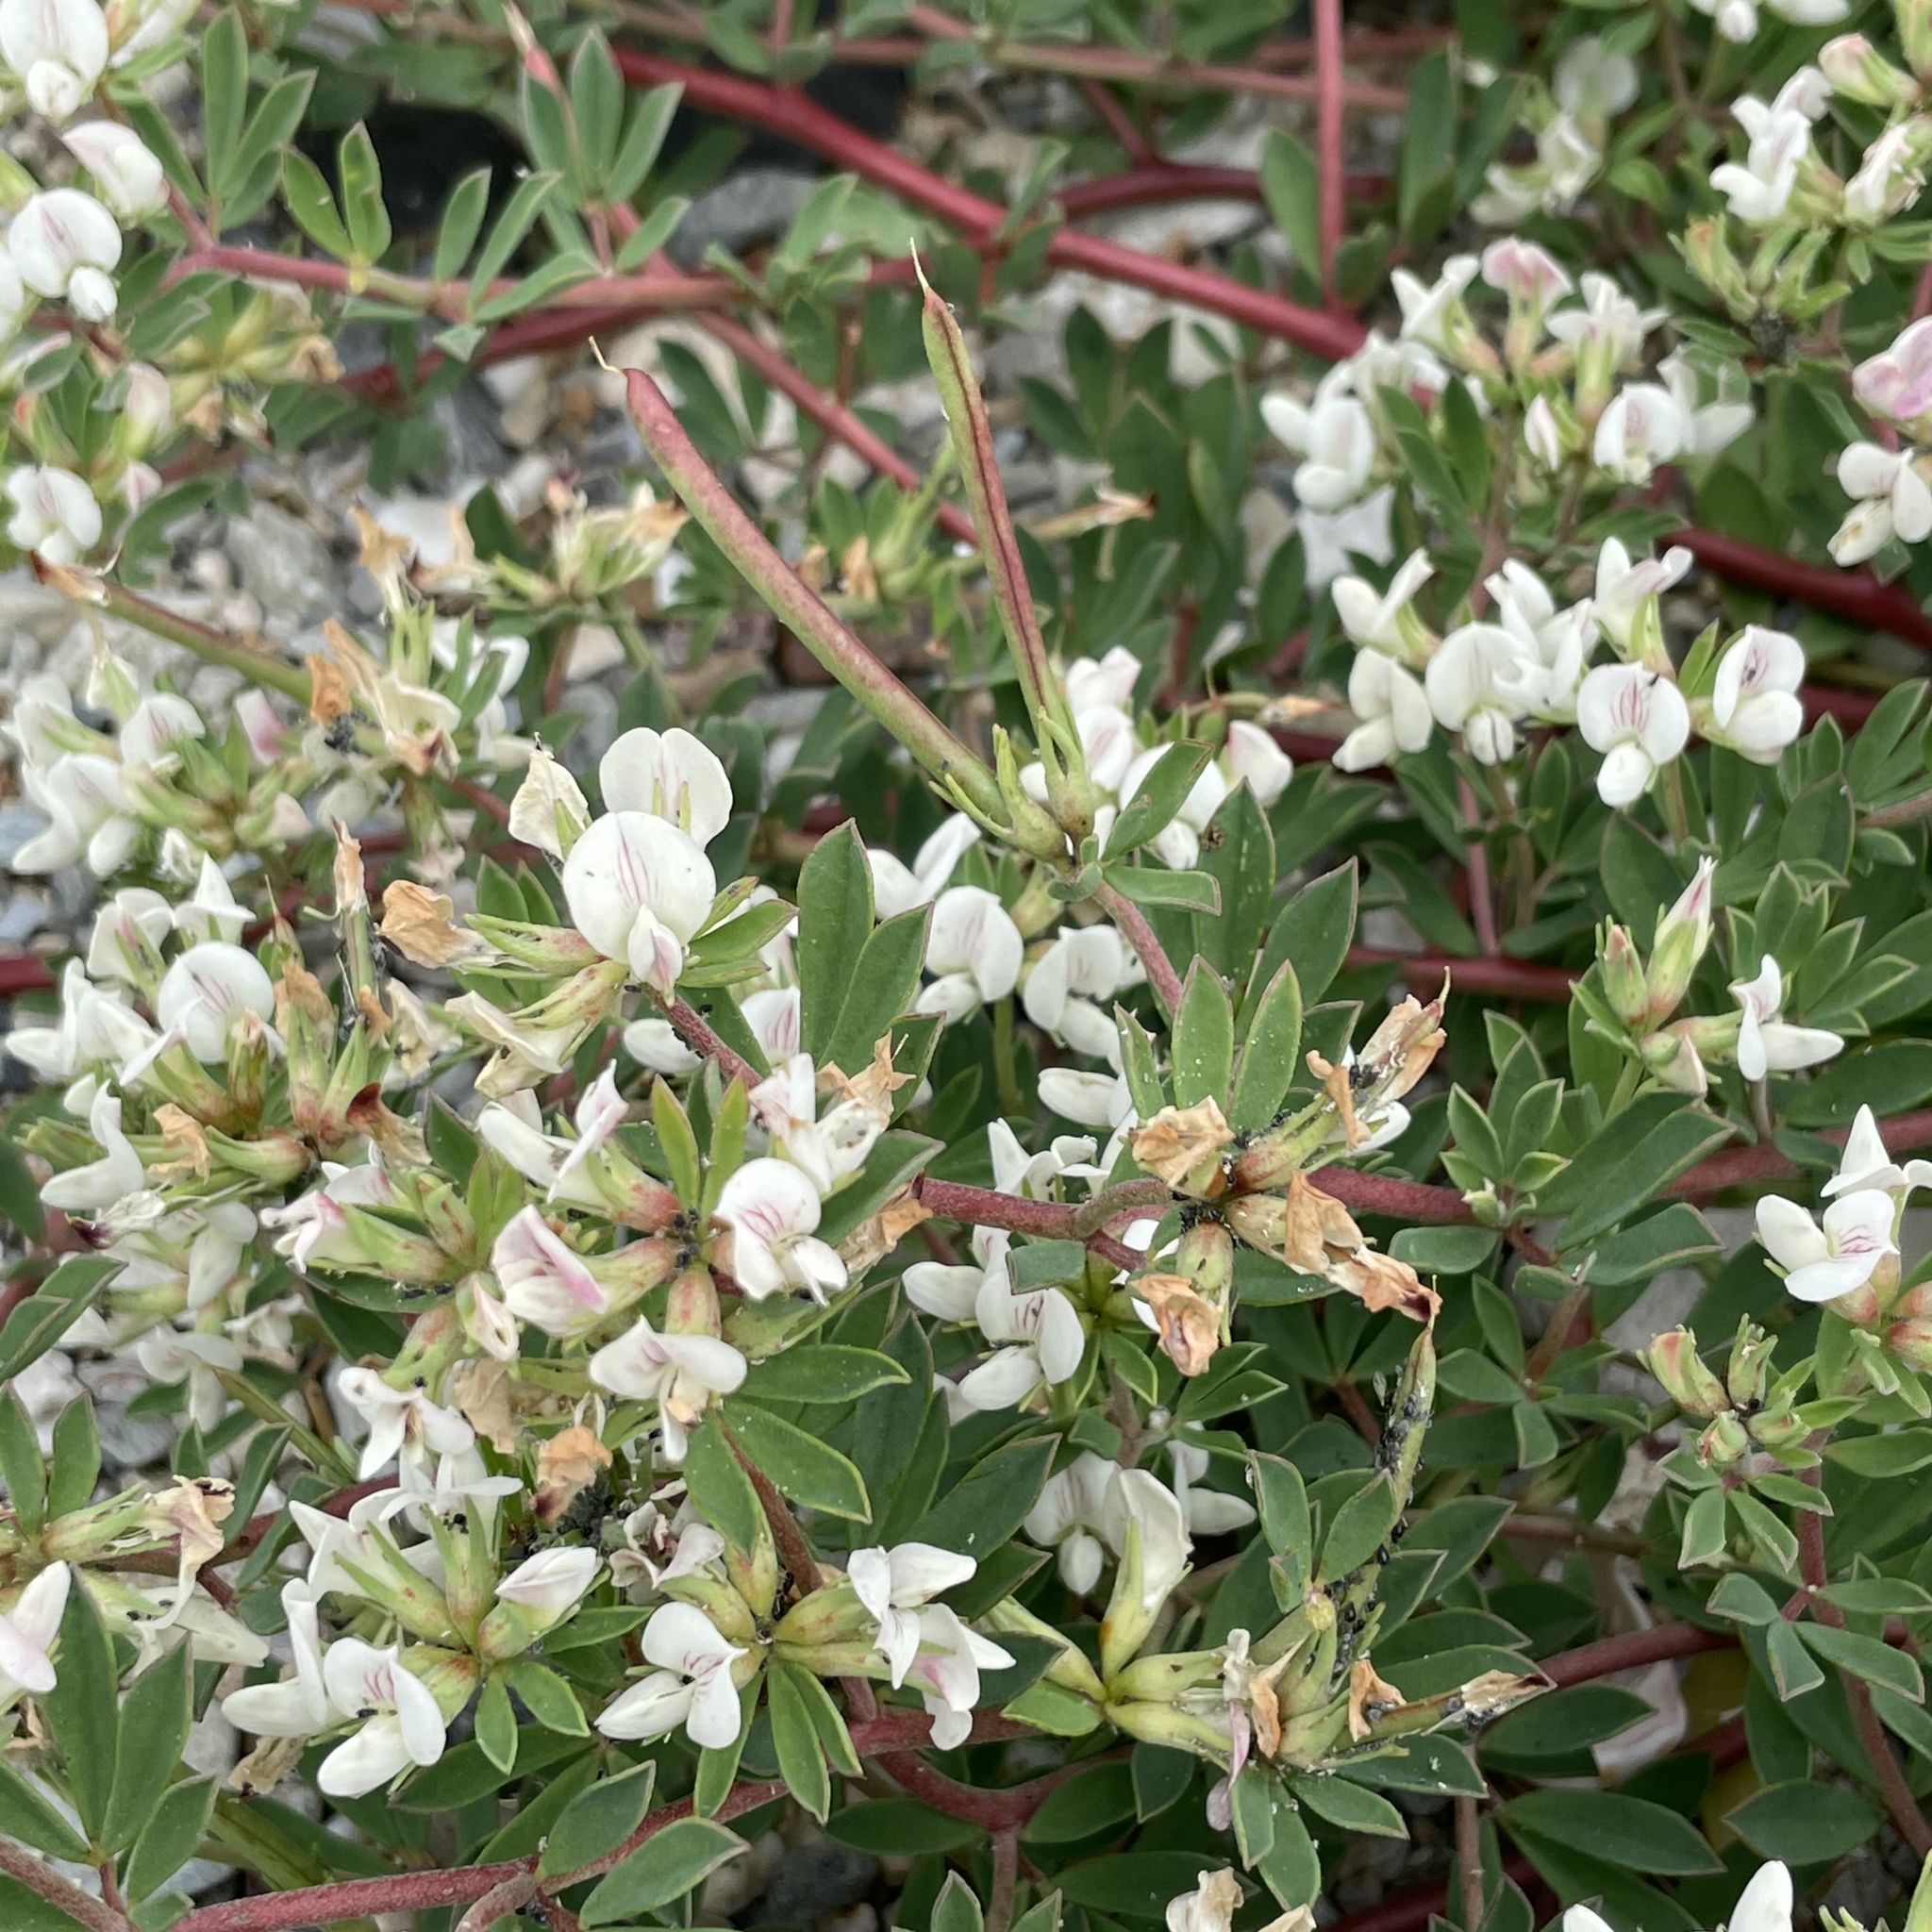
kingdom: Plantae
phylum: Tracheophyta
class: Magnoliopsida
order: Fabales
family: Fabaceae
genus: Lotus
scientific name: Lotus taitungensis
